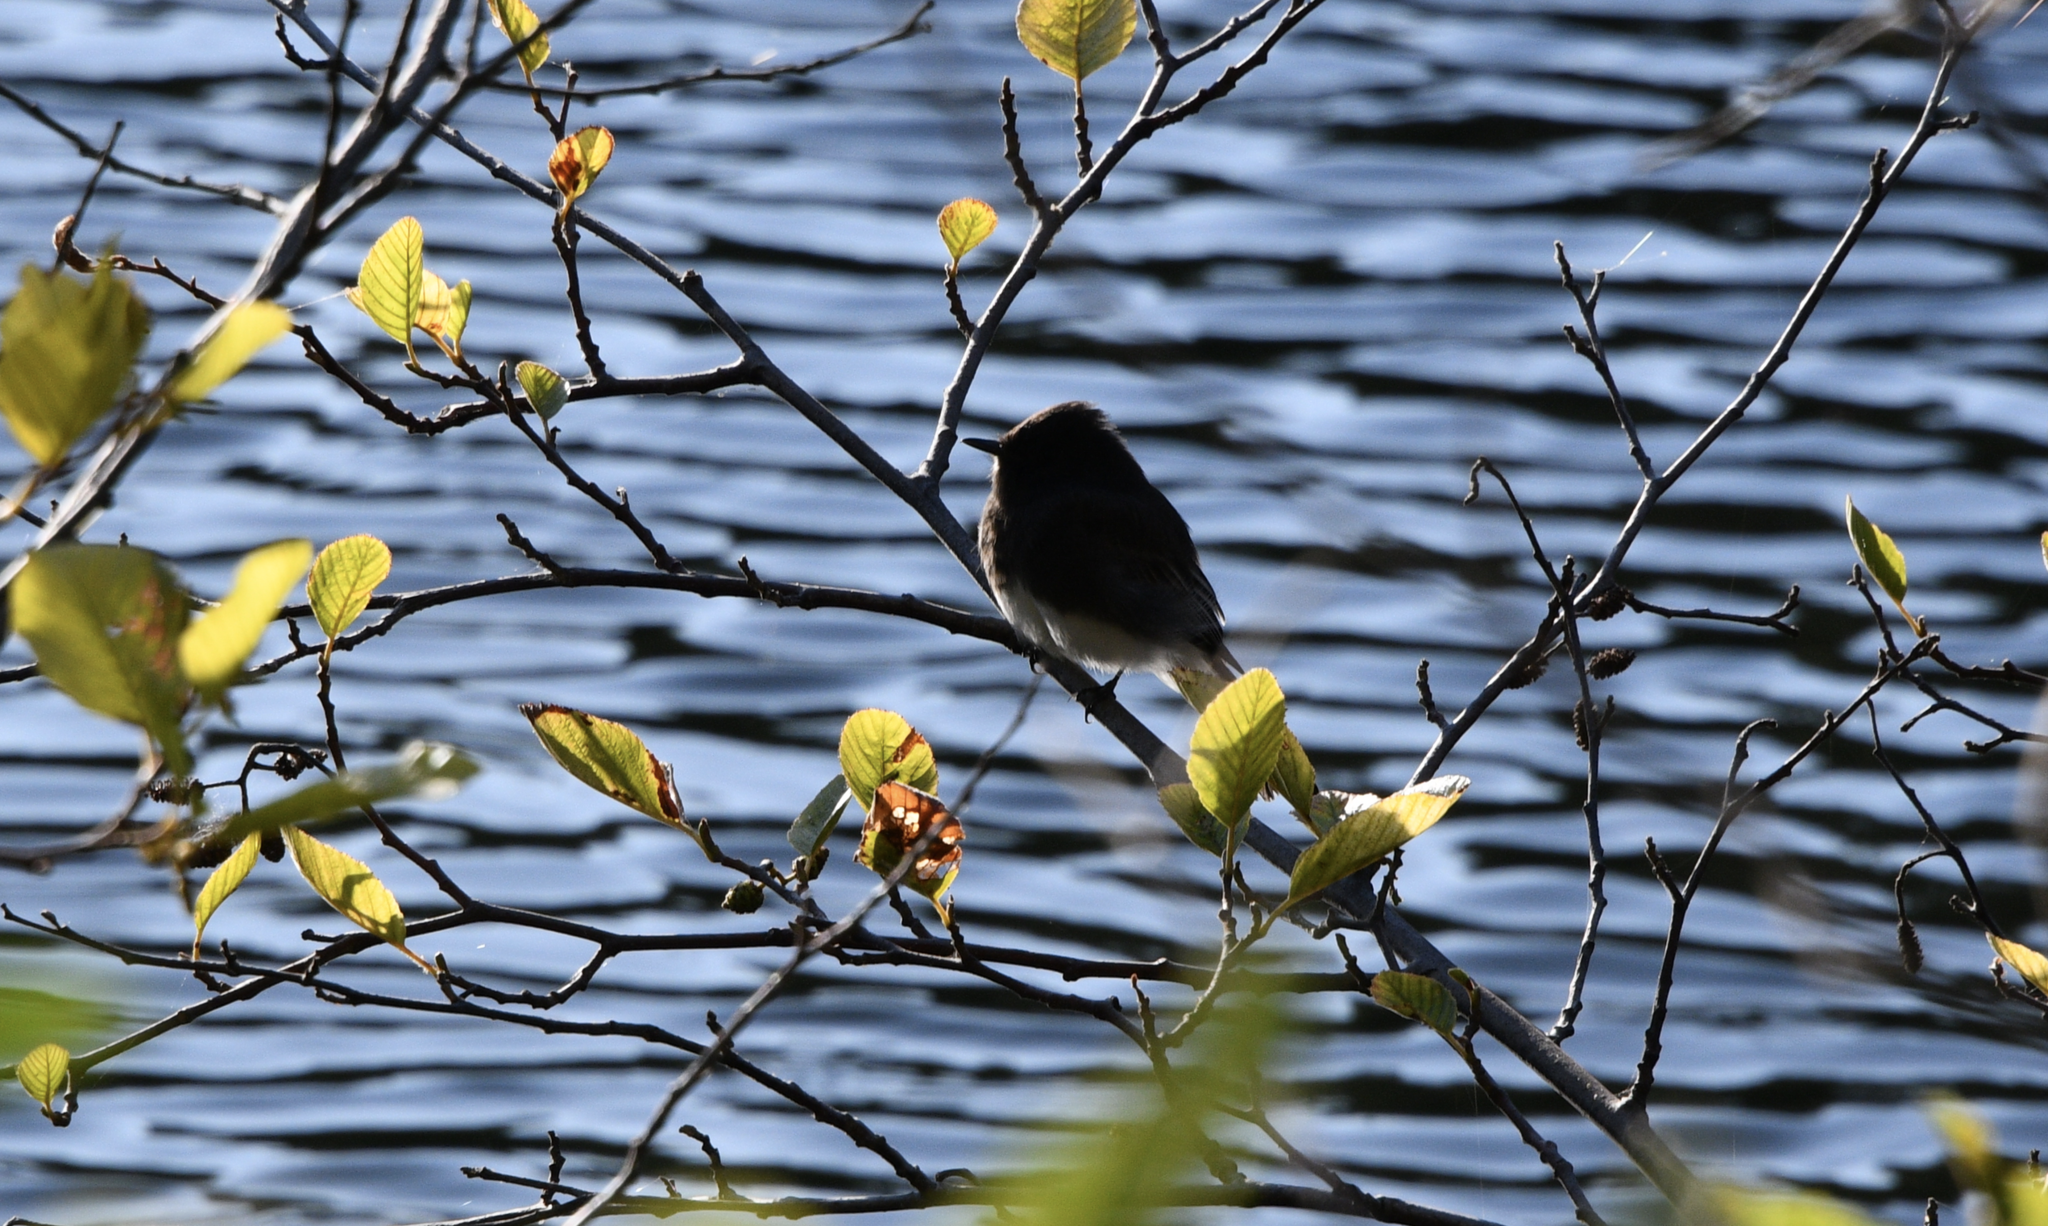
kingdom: Animalia
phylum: Chordata
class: Aves
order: Passeriformes
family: Tyrannidae
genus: Sayornis
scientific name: Sayornis nigricans
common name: Black phoebe
